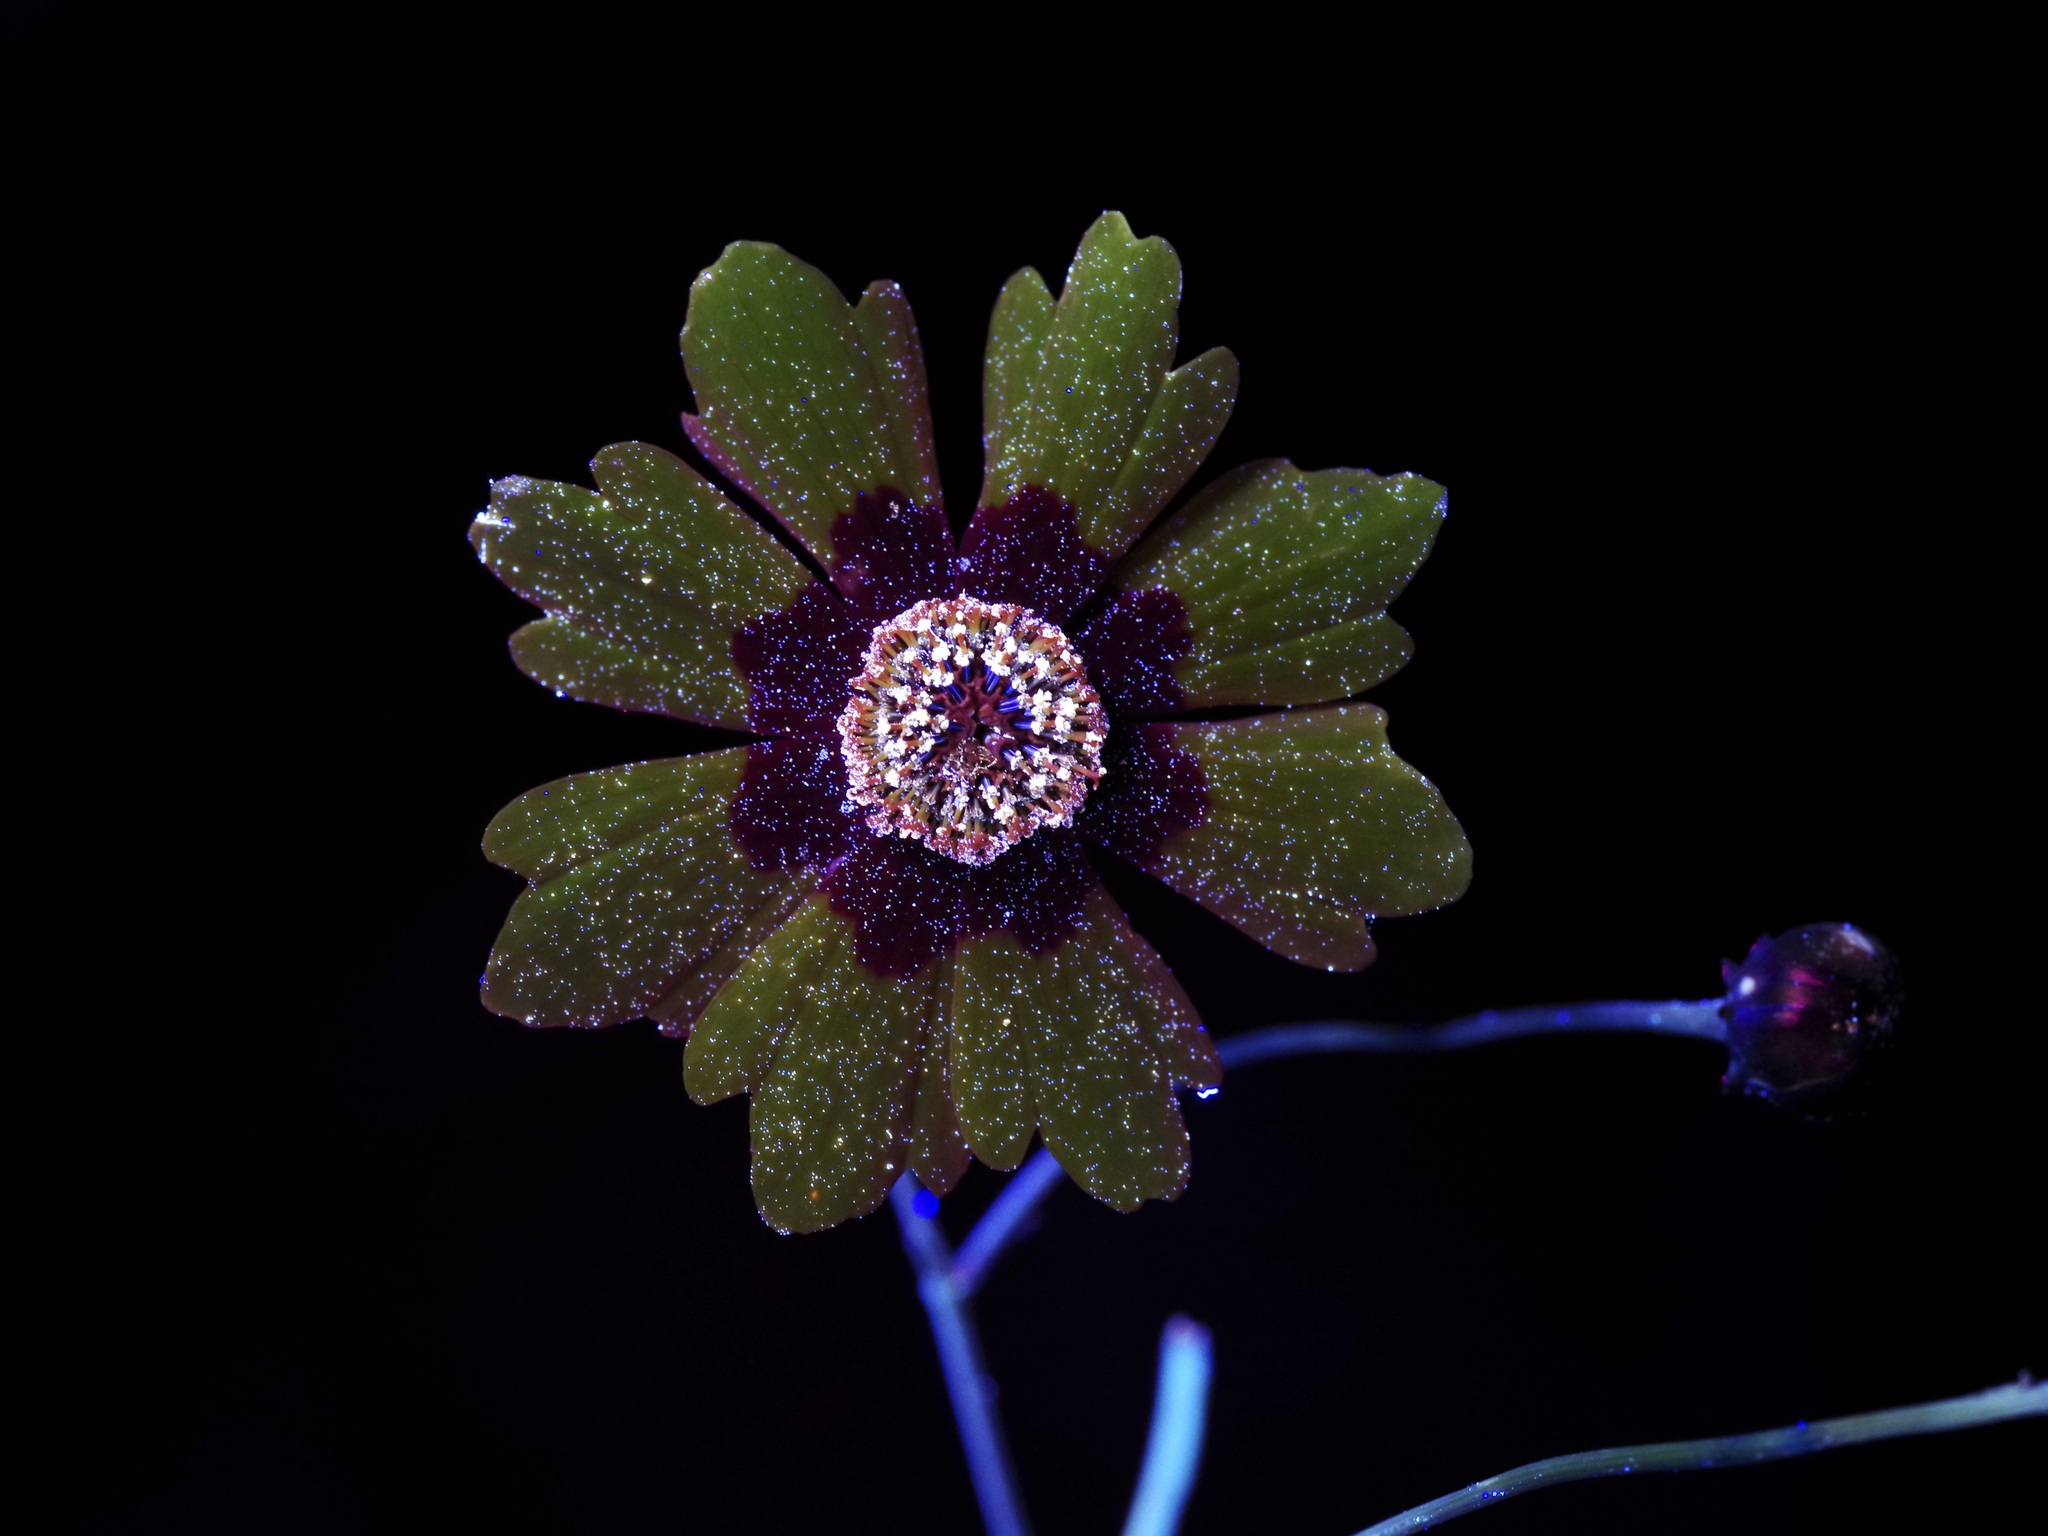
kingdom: Plantae
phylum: Tracheophyta
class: Magnoliopsida
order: Asterales
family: Asteraceae
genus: Coreopsis
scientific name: Coreopsis tinctoria
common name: Garden tickseed
